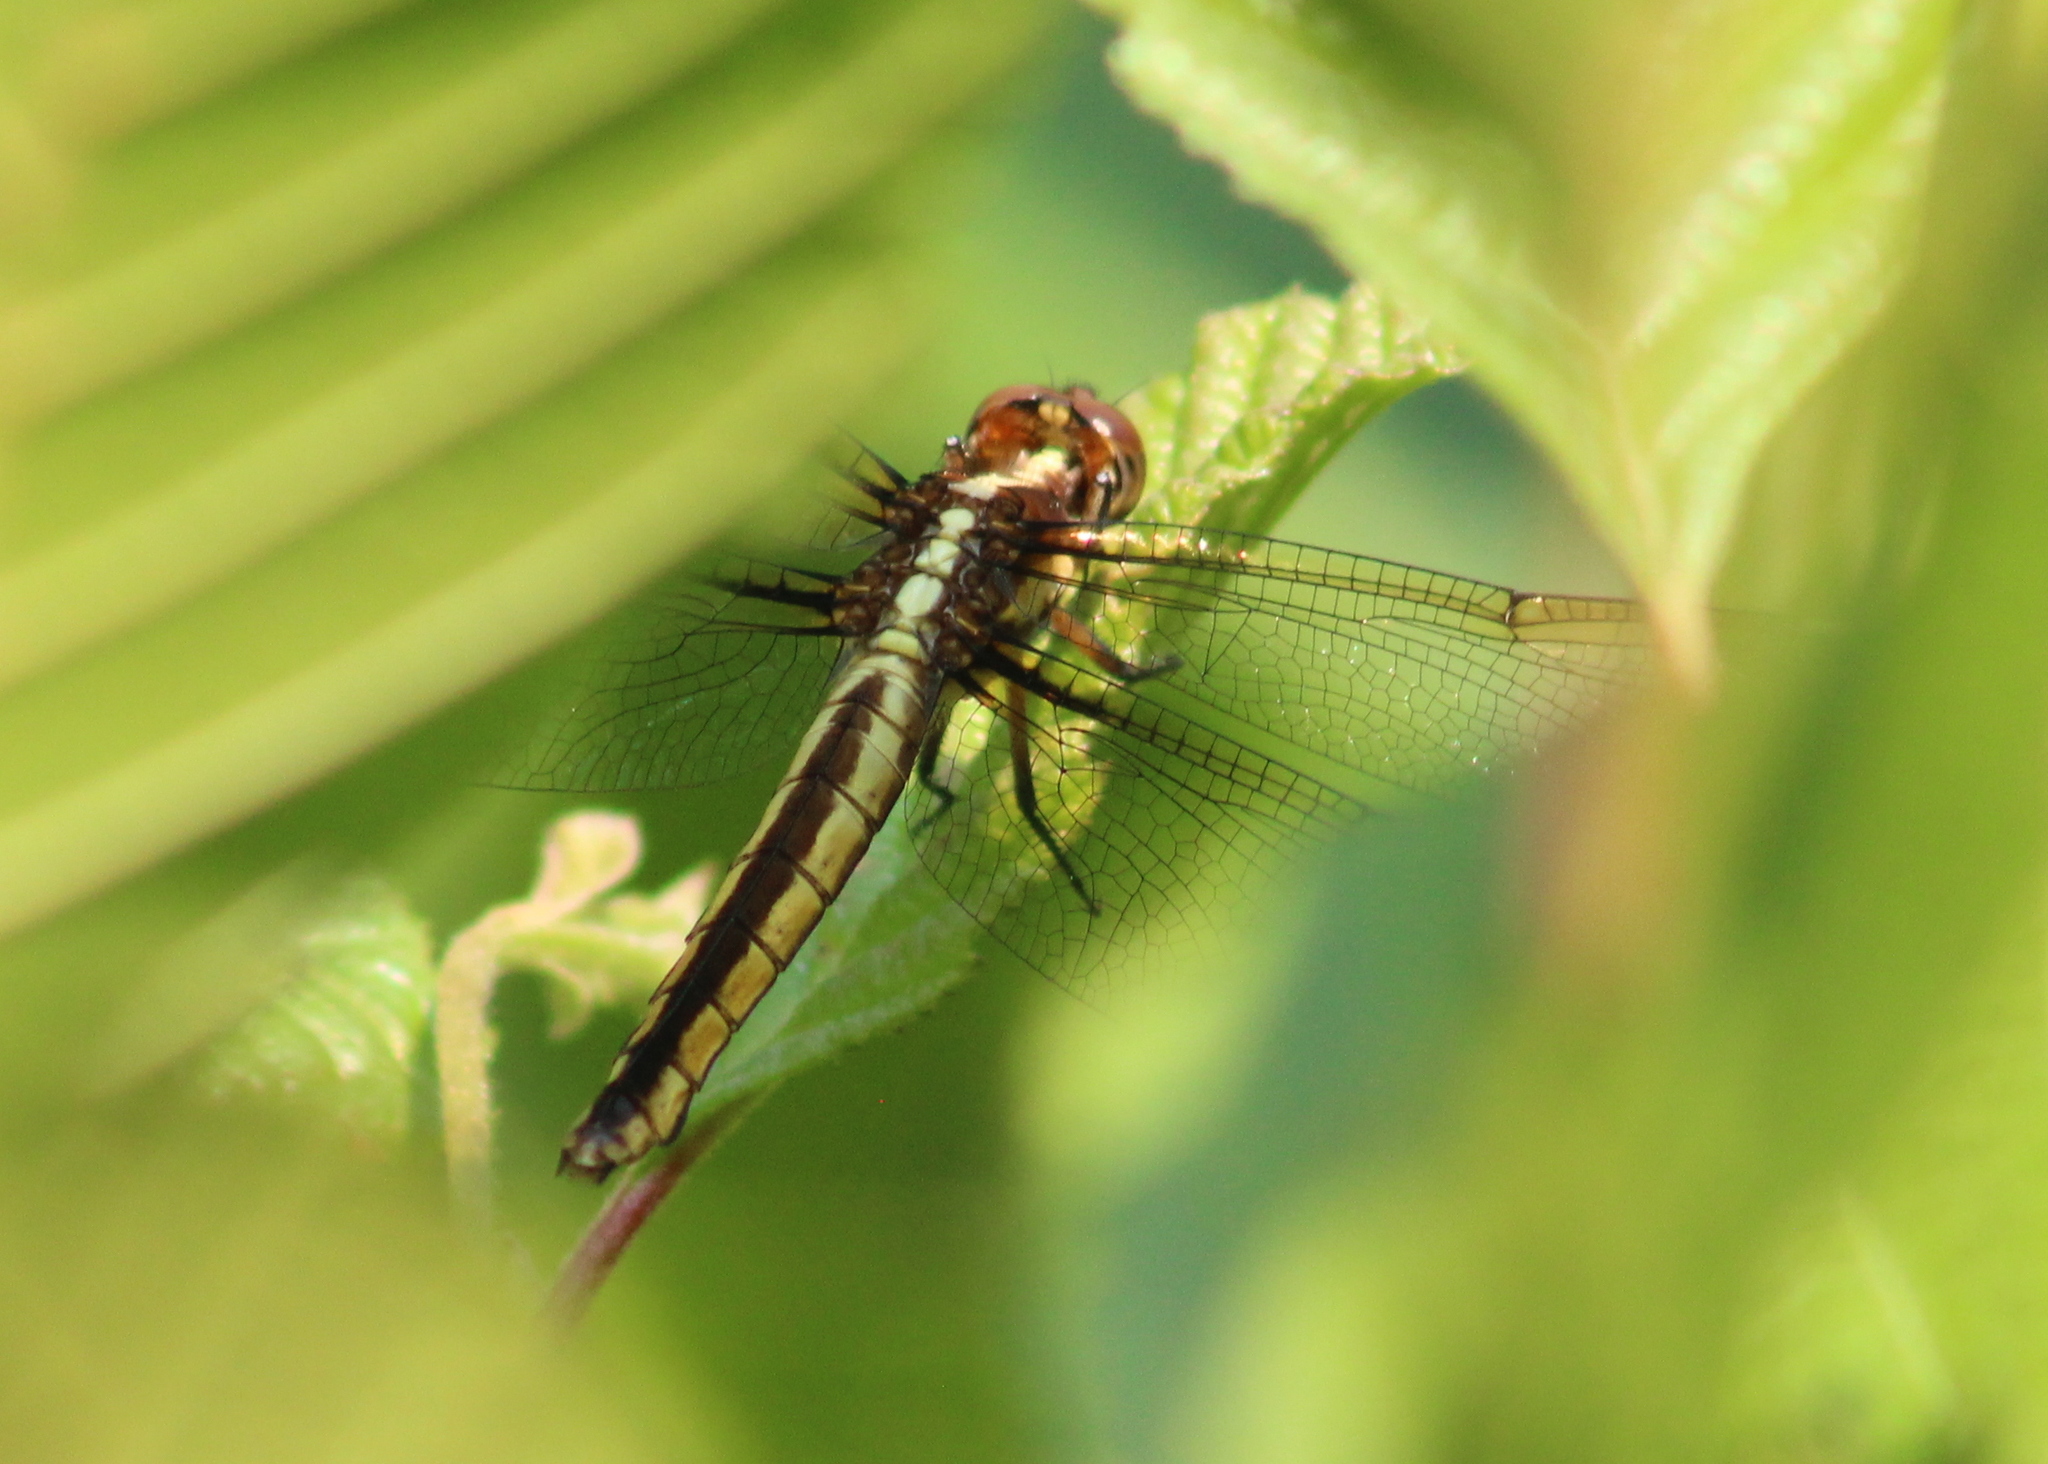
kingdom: Animalia
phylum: Arthropoda
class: Insecta
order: Odonata
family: Libellulidae
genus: Libellula
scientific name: Libellula cyanea
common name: Spangled skimmer
